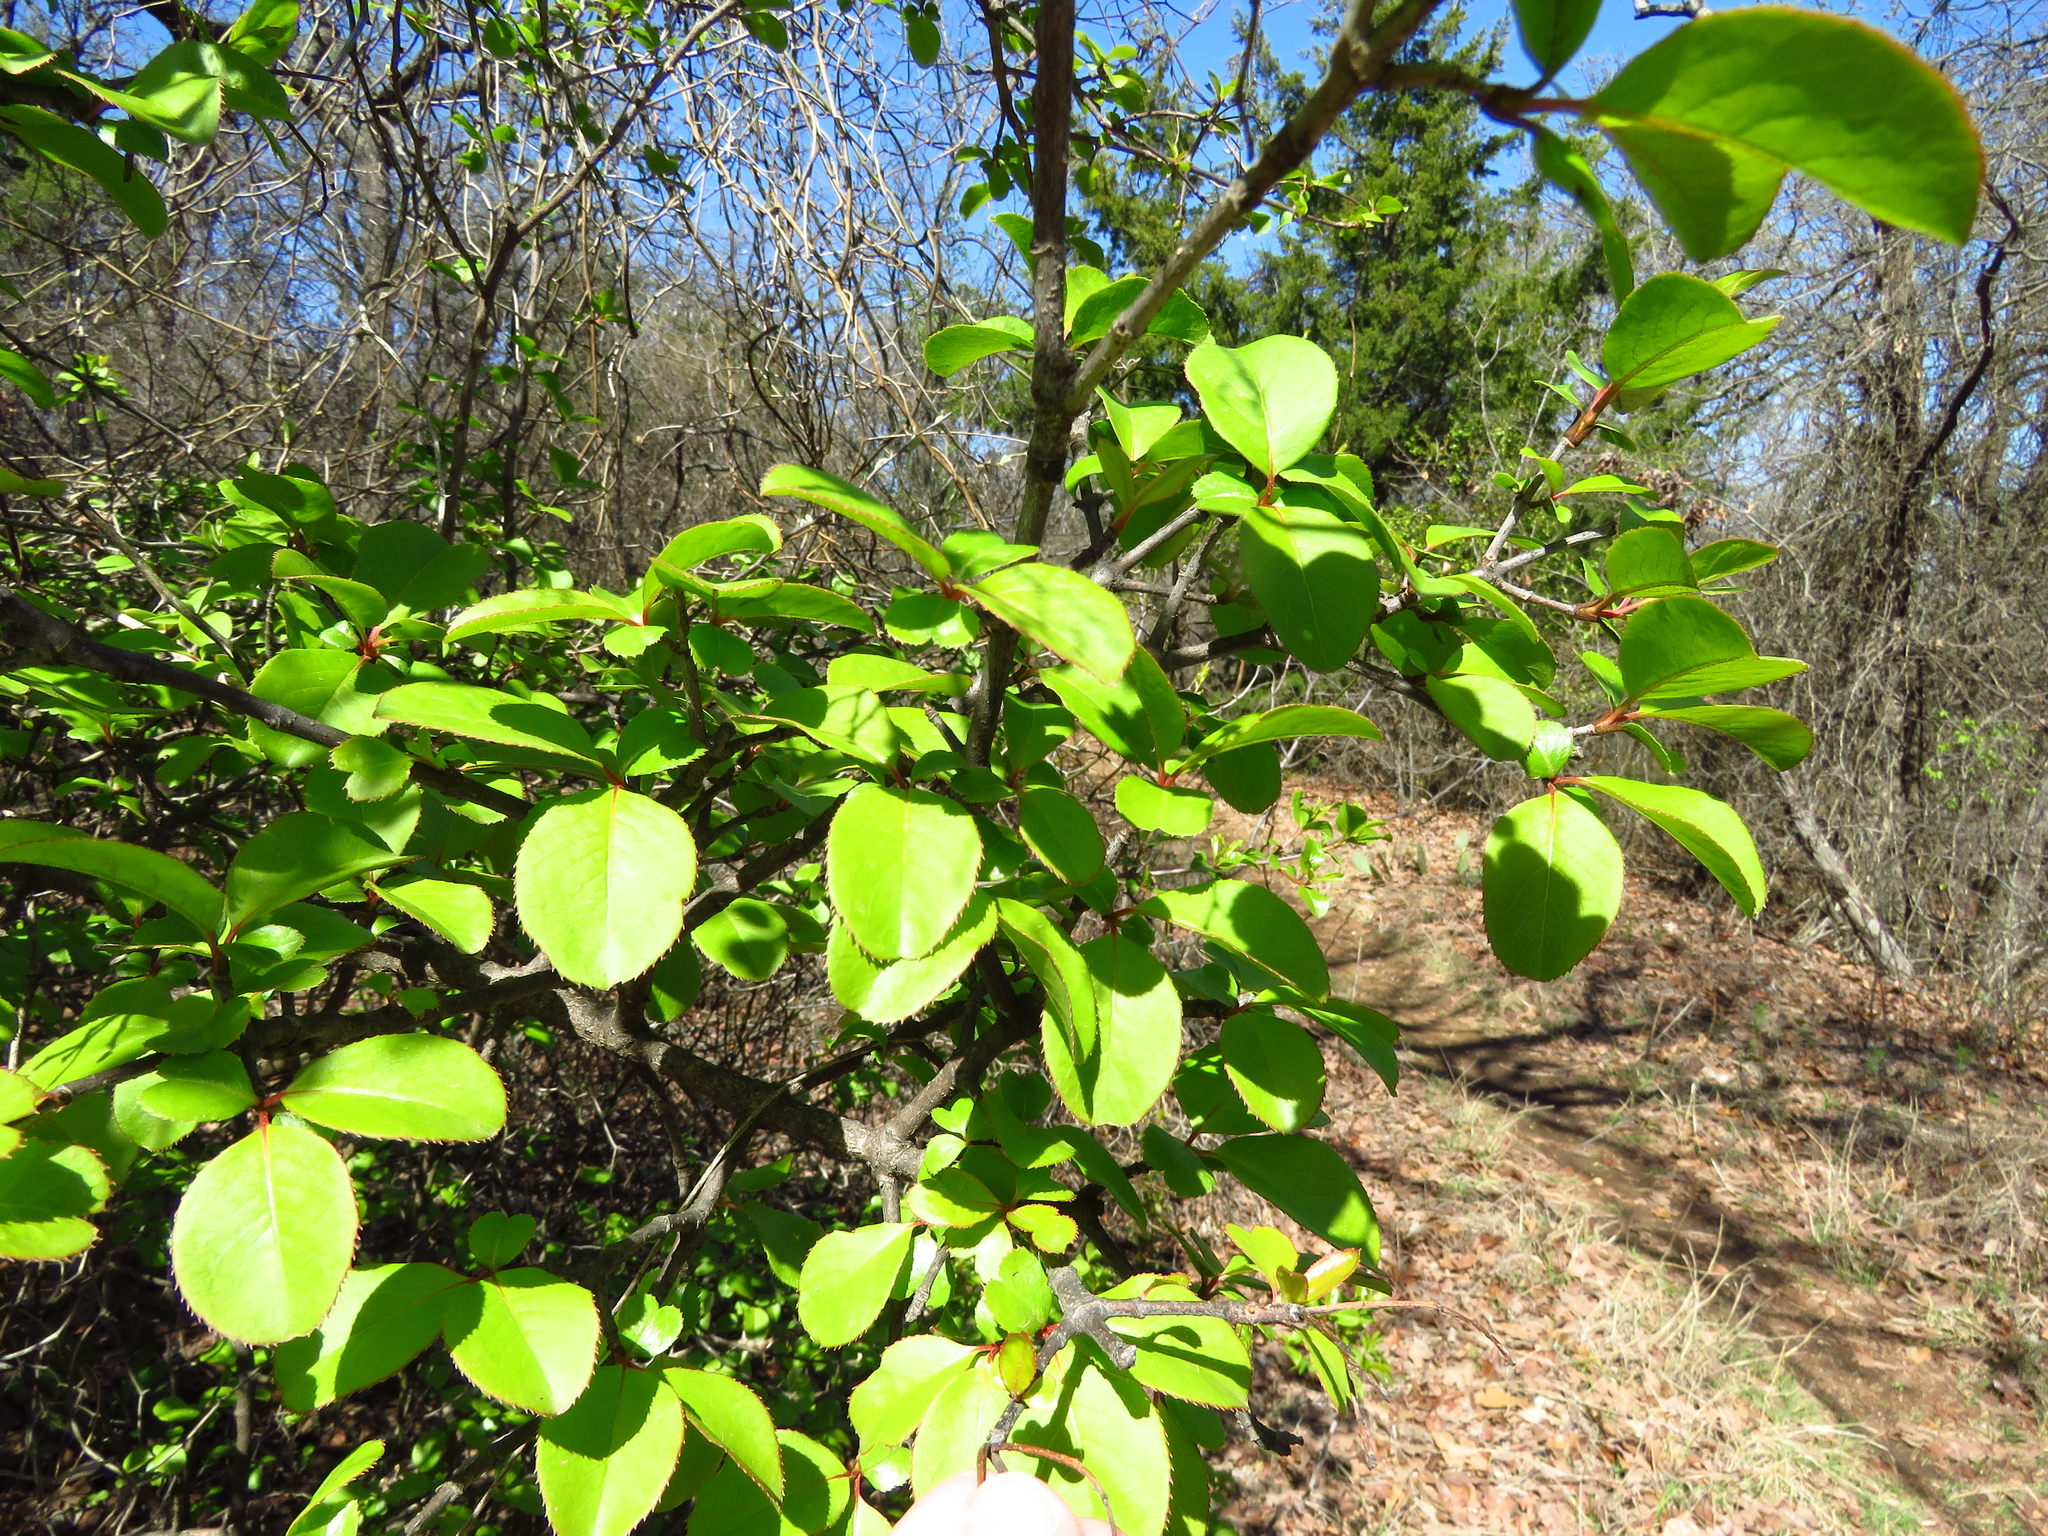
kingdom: Plantae
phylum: Tracheophyta
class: Magnoliopsida
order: Dipsacales
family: Viburnaceae
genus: Viburnum
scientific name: Viburnum rufidulum
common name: Blue haw
